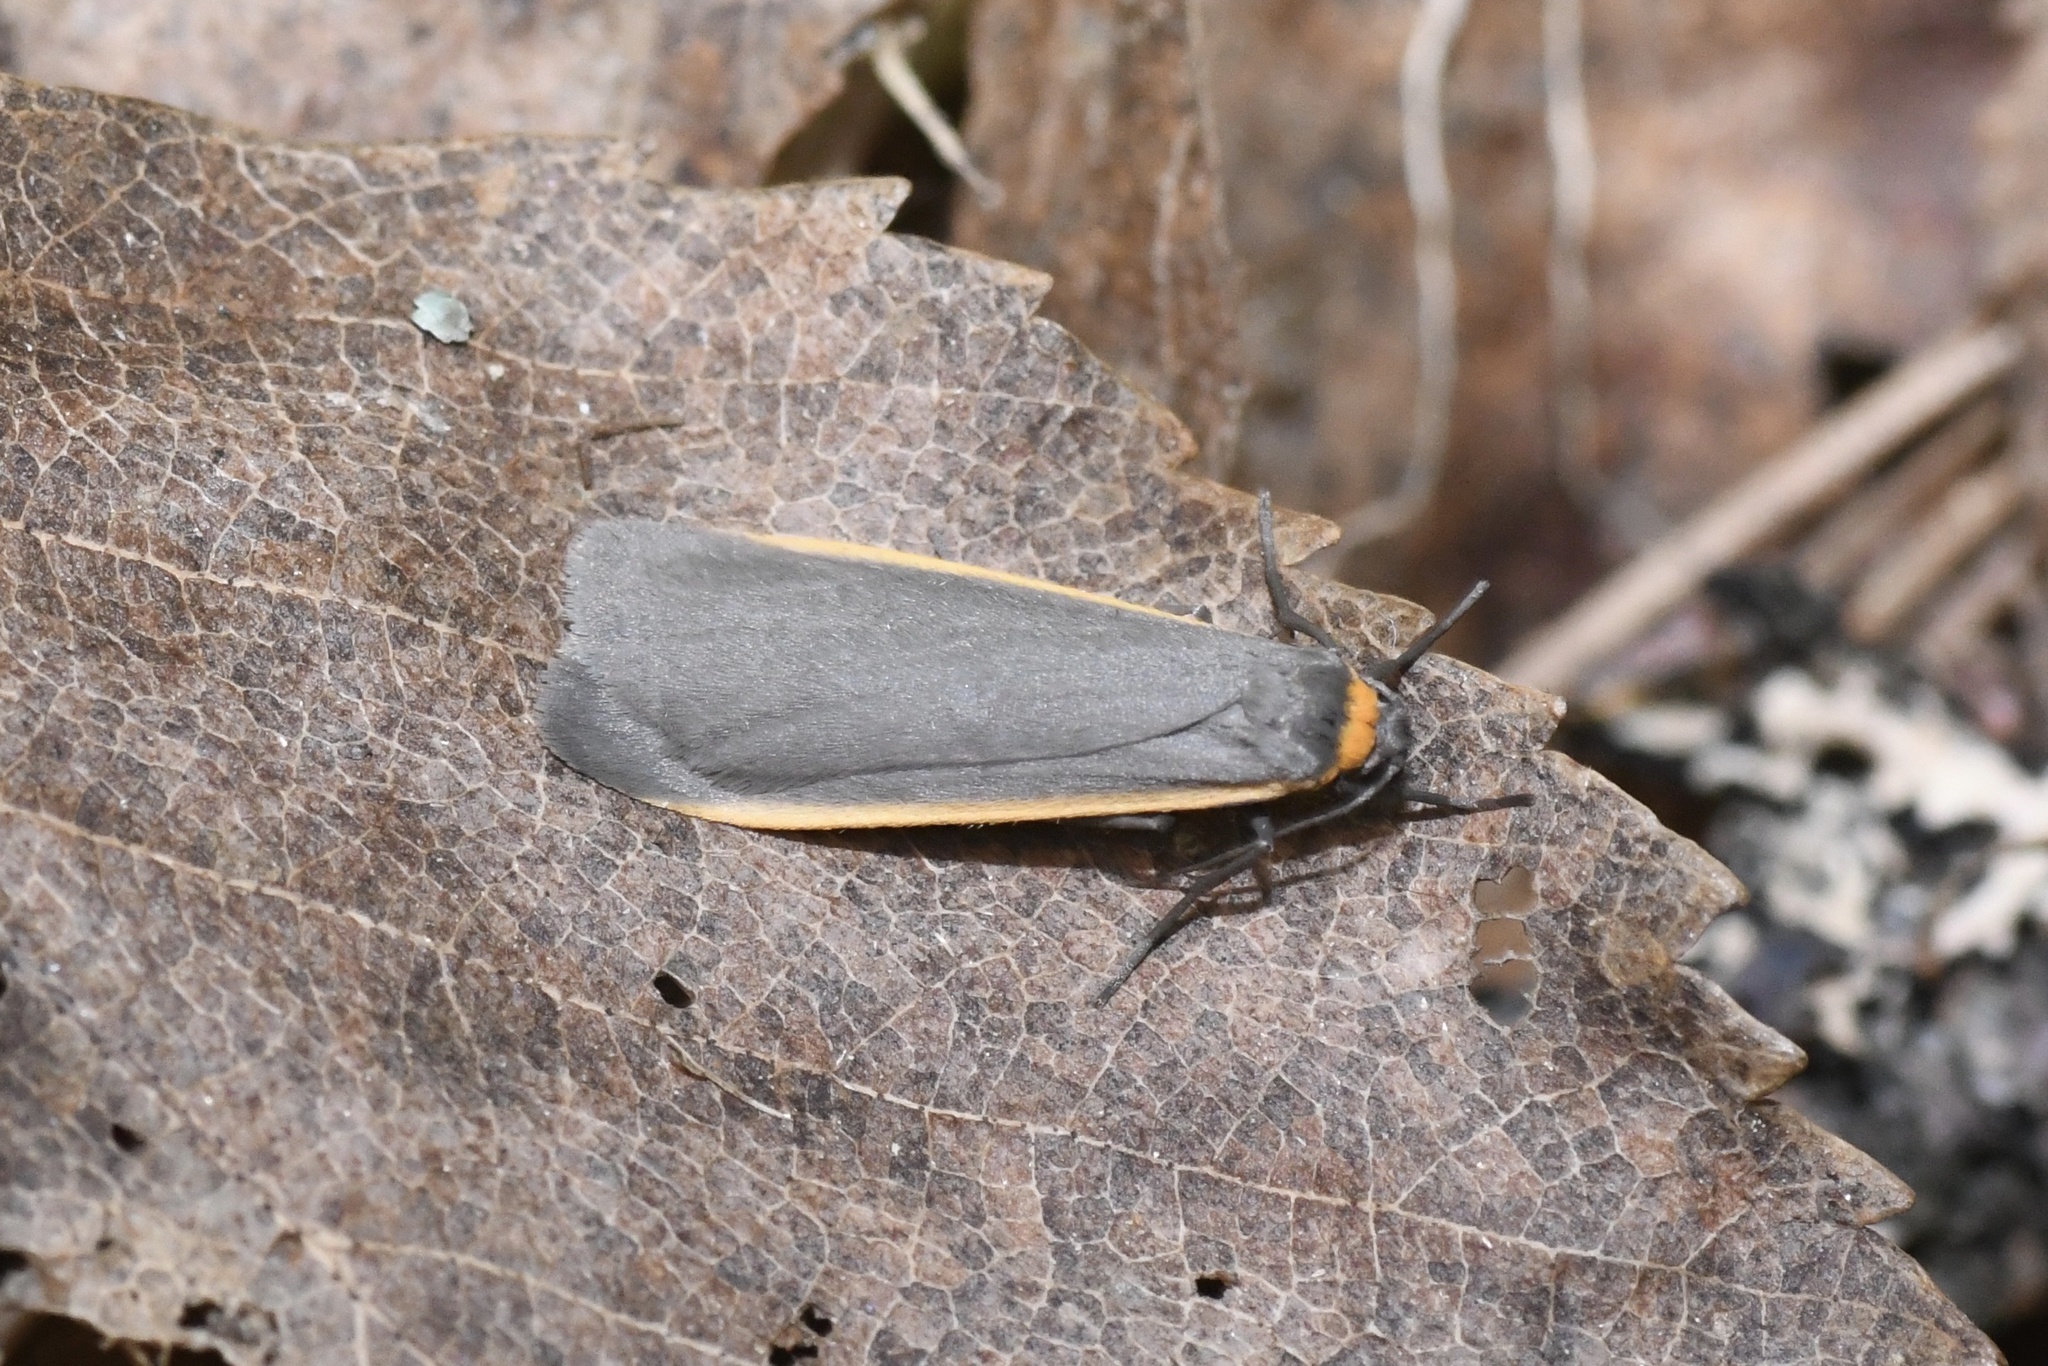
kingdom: Animalia
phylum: Arthropoda
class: Insecta
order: Lepidoptera
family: Erebidae
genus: Manulea
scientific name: Manulea bicolor
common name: Bicolored moth
